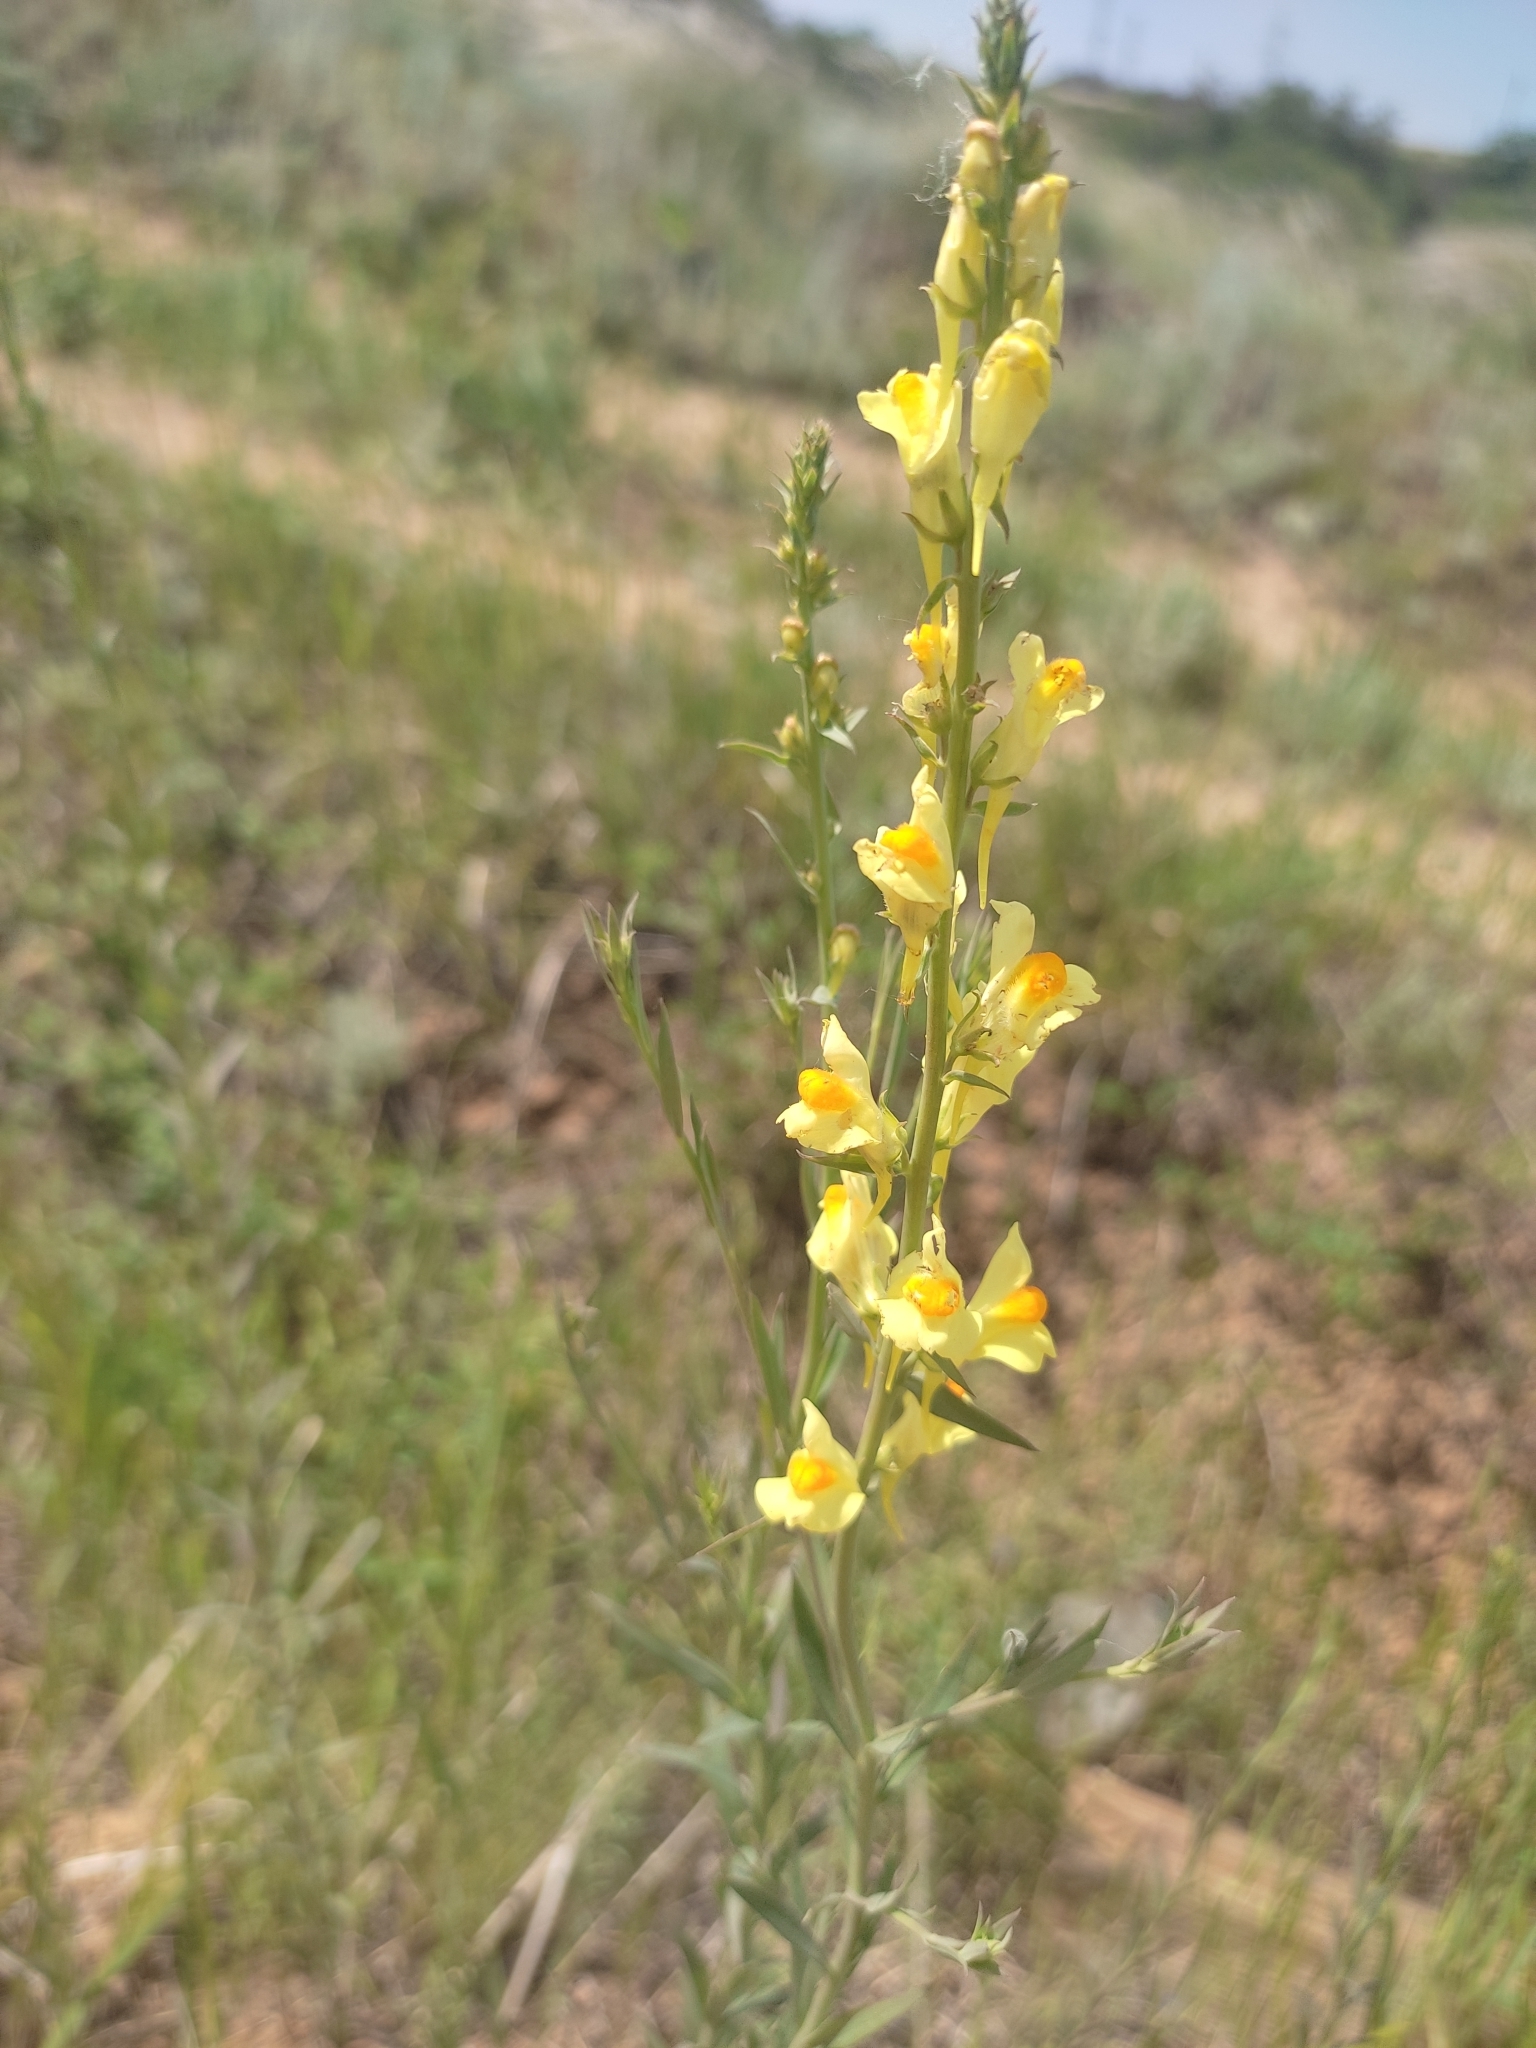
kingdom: Plantae
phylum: Tracheophyta
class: Magnoliopsida
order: Lamiales
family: Plantaginaceae
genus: Linaria
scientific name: Linaria biebersteinii
